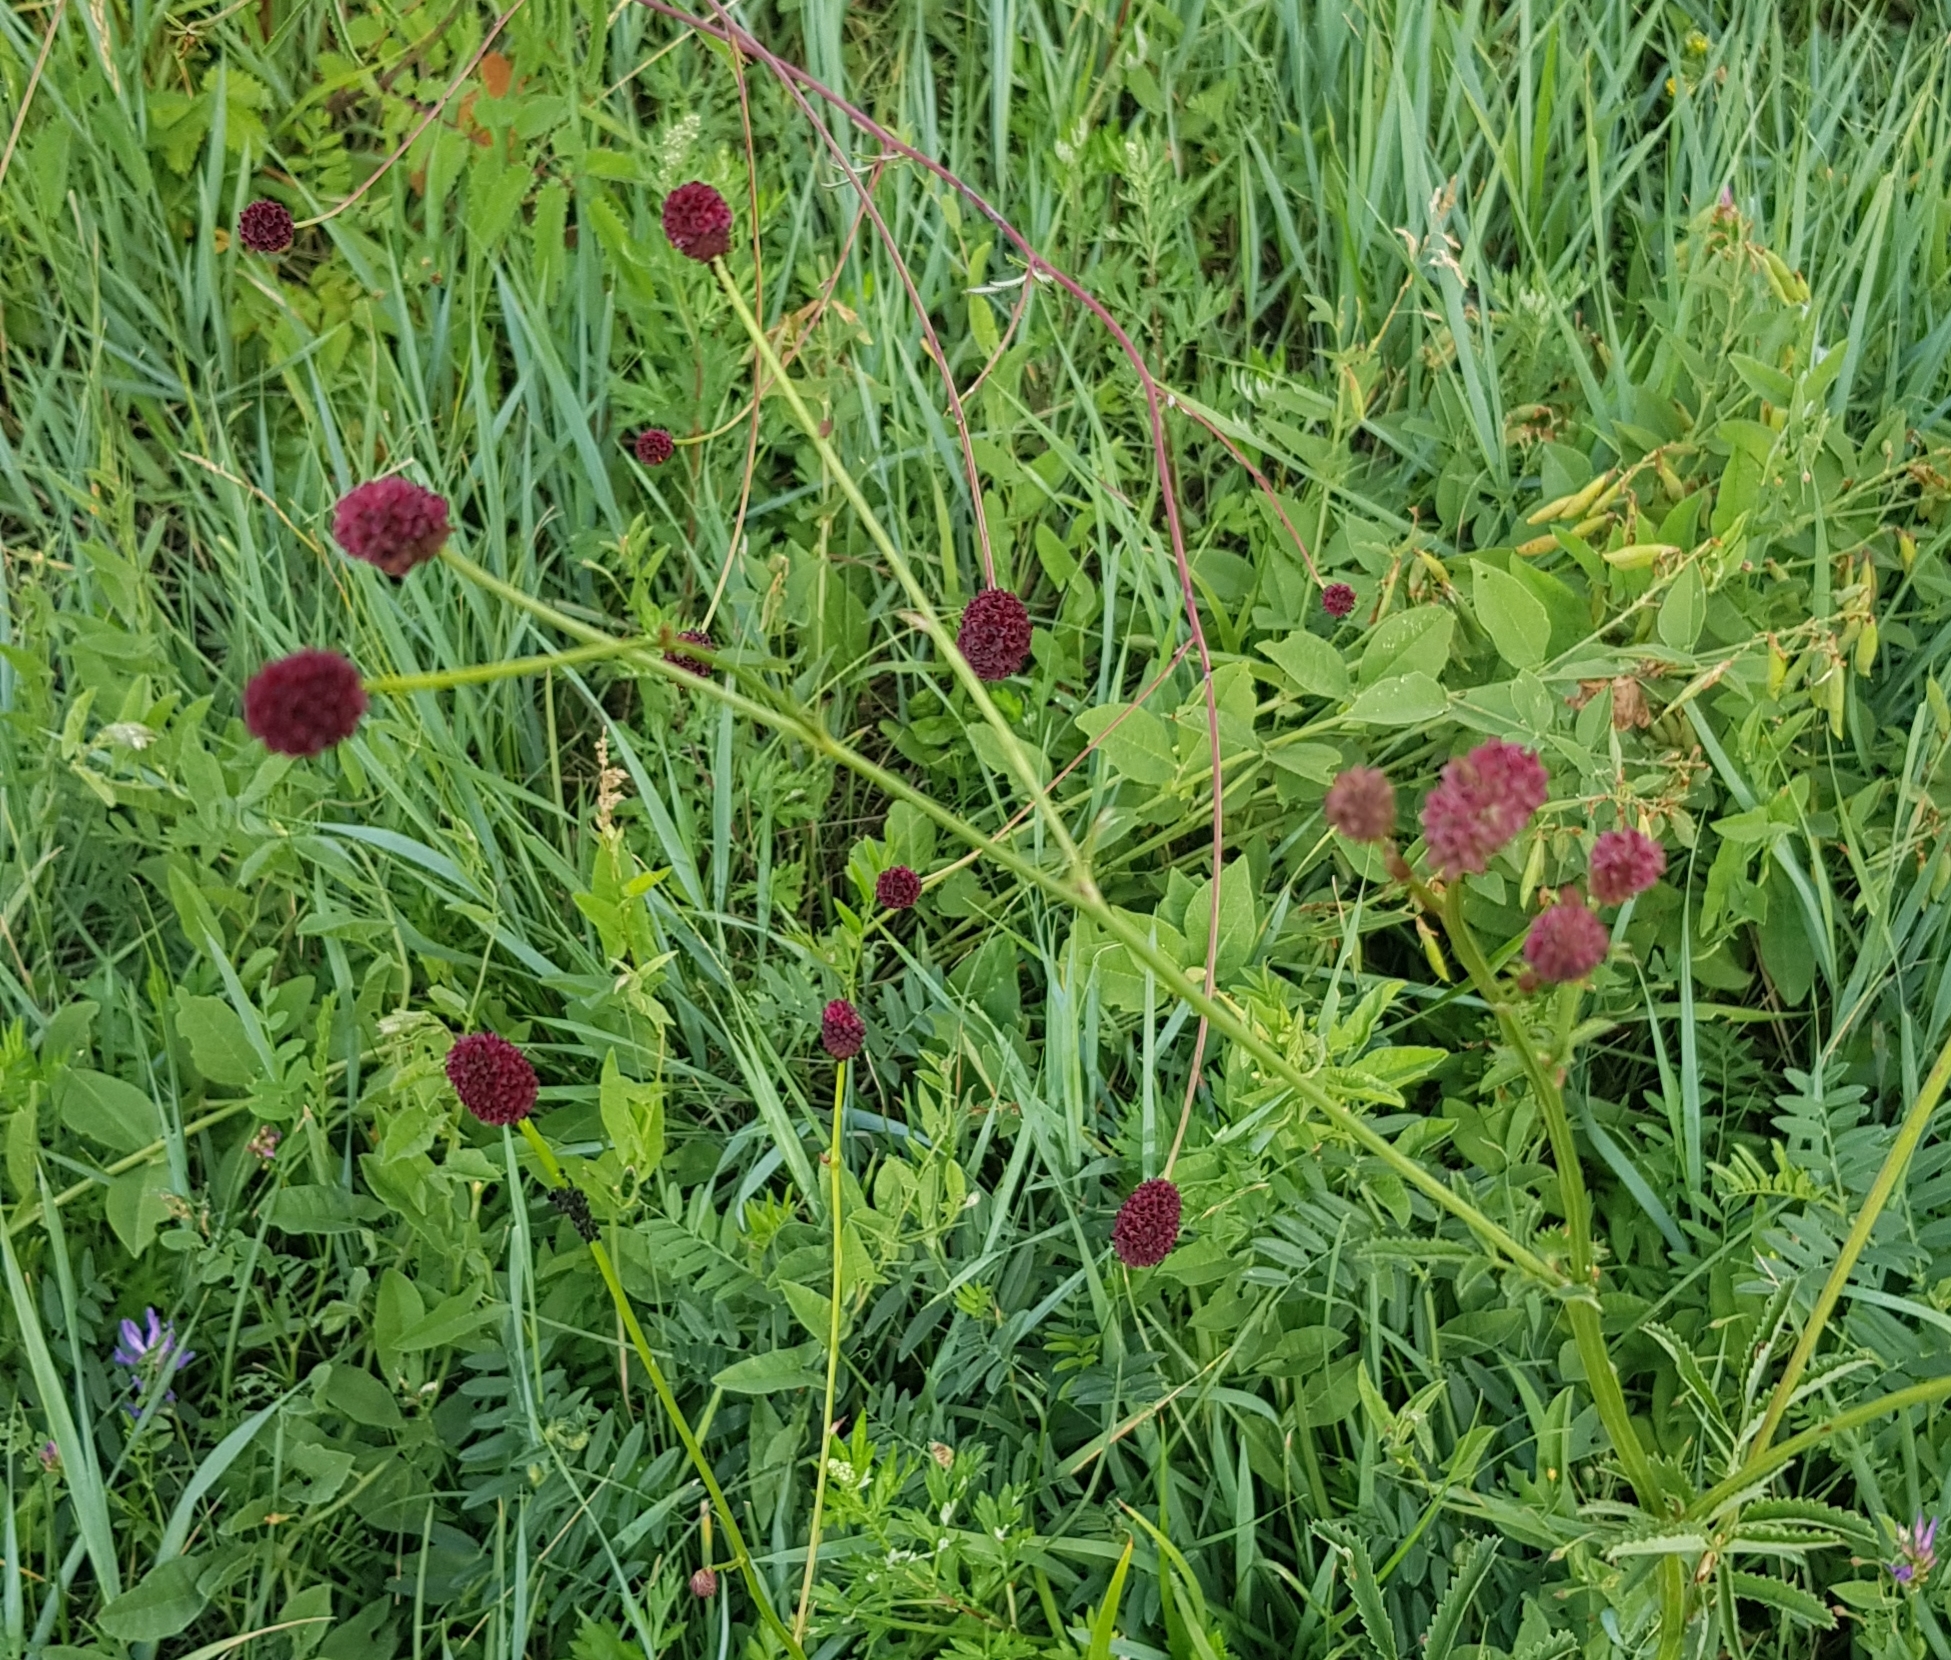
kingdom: Plantae
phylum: Tracheophyta
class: Magnoliopsida
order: Rosales
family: Rosaceae
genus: Sanguisorba
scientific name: Sanguisorba officinalis
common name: Great burnet
